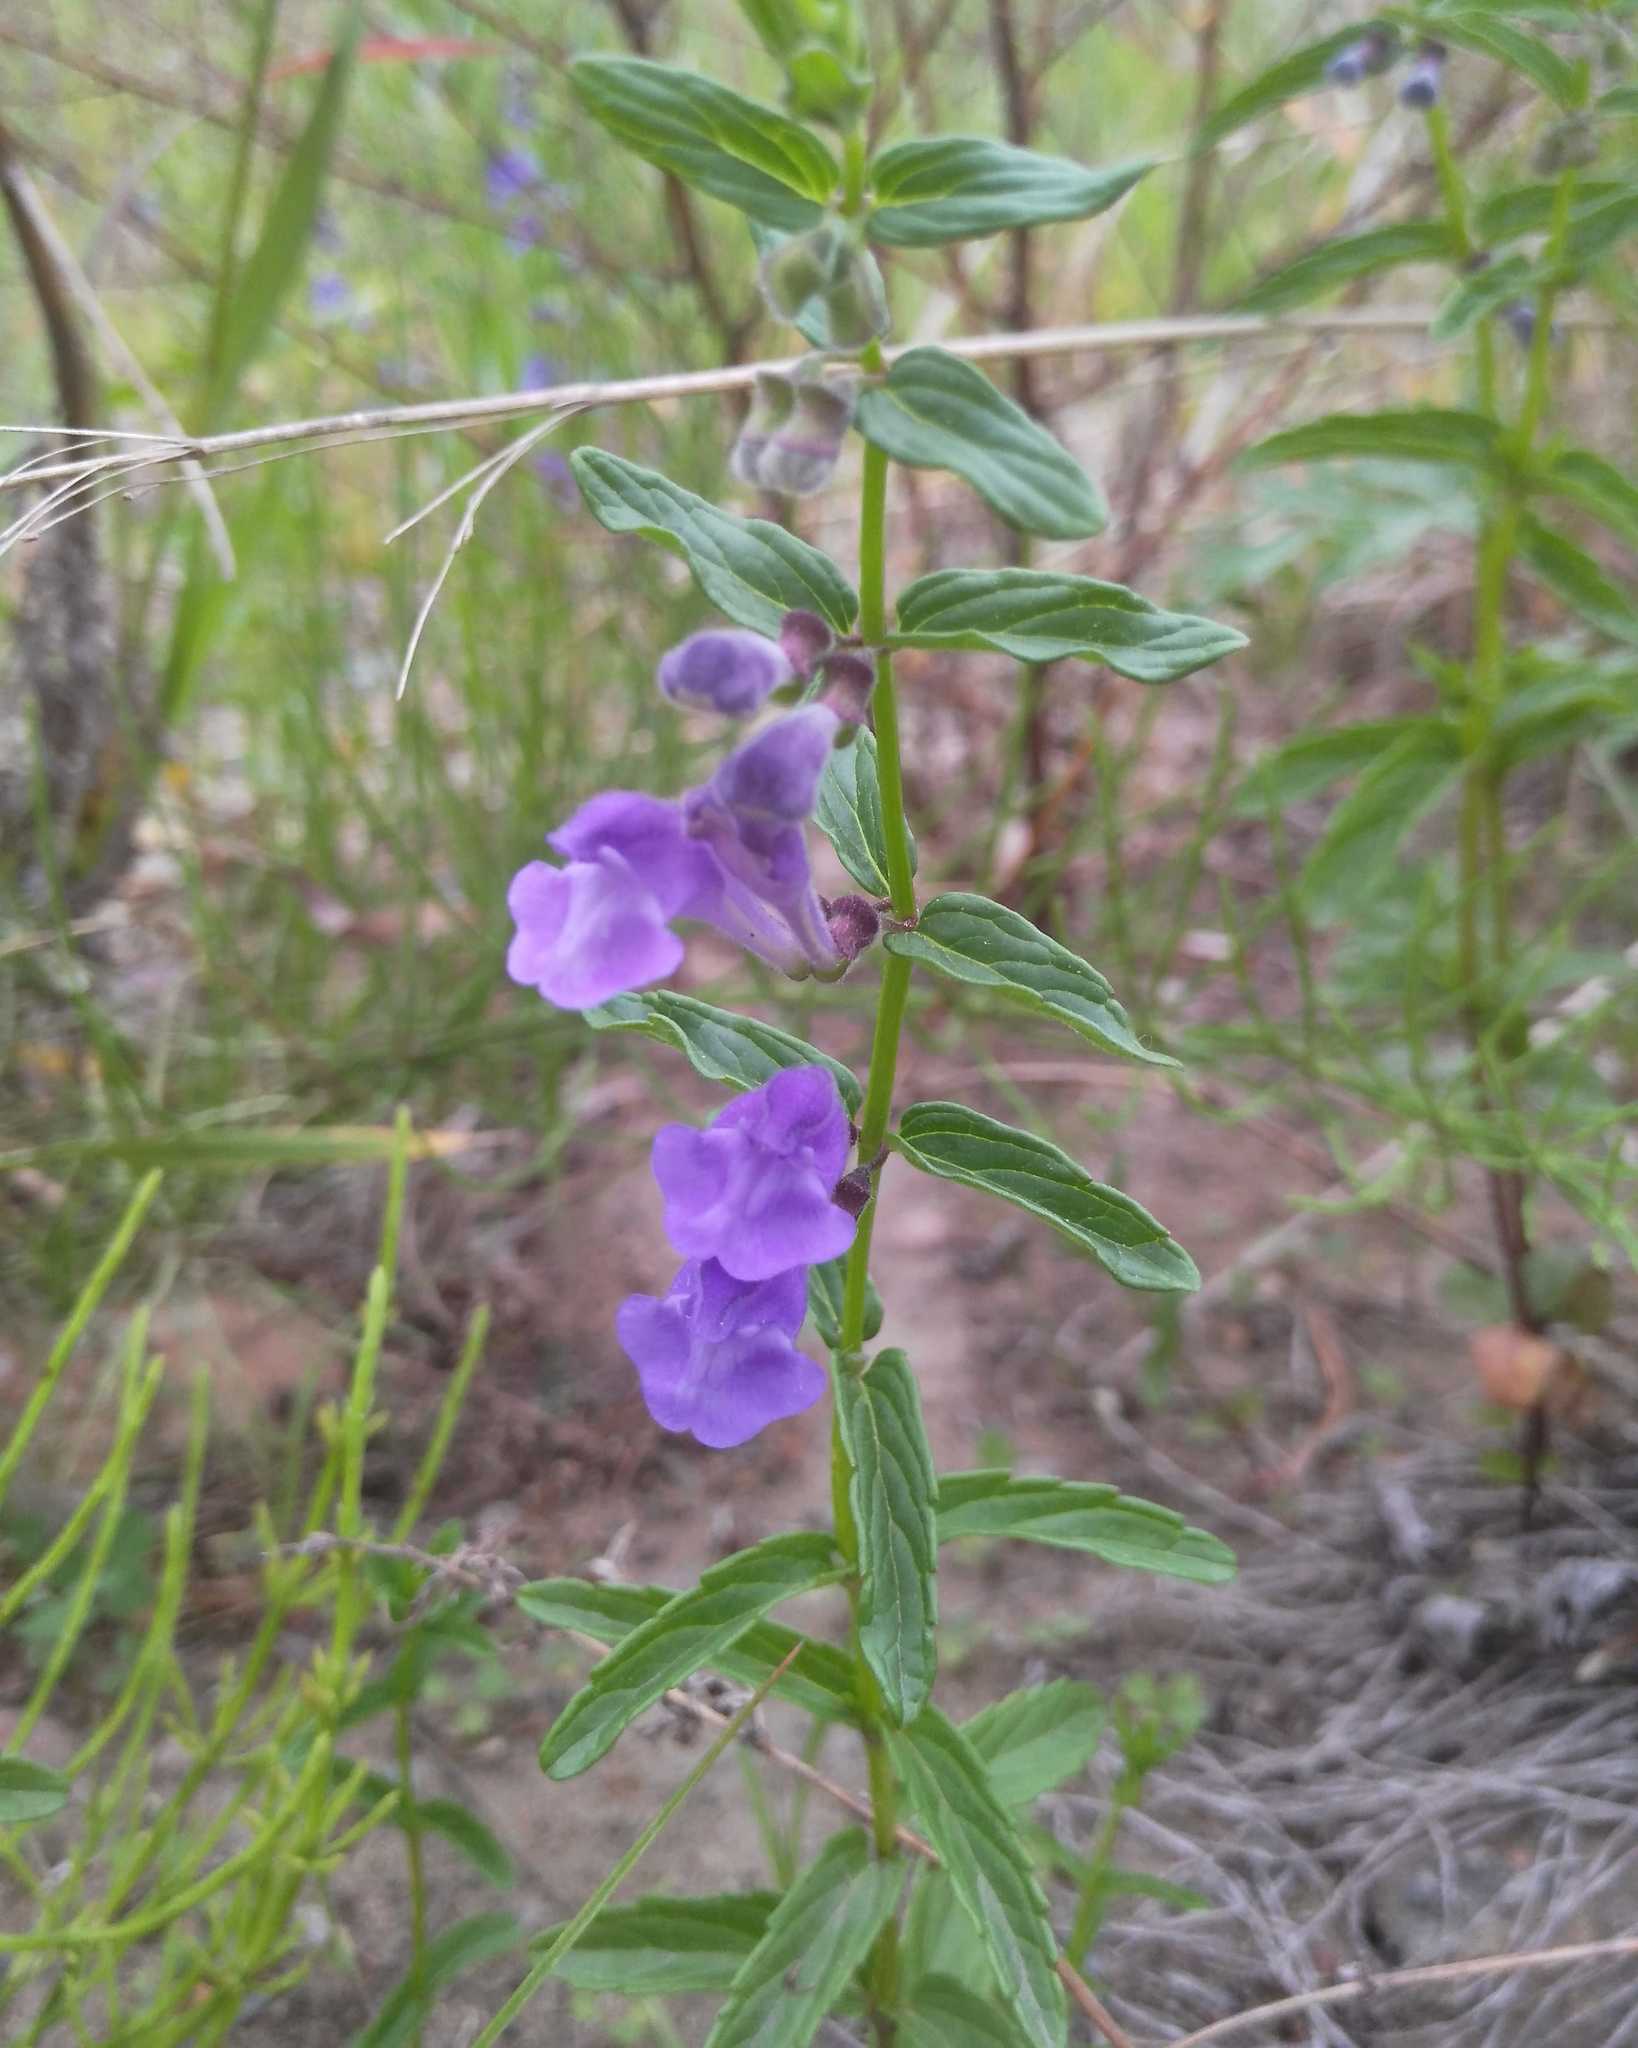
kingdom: Plantae
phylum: Tracheophyta
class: Magnoliopsida
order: Lamiales
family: Lamiaceae
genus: Scutellaria
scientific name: Scutellaria scordiifolia
